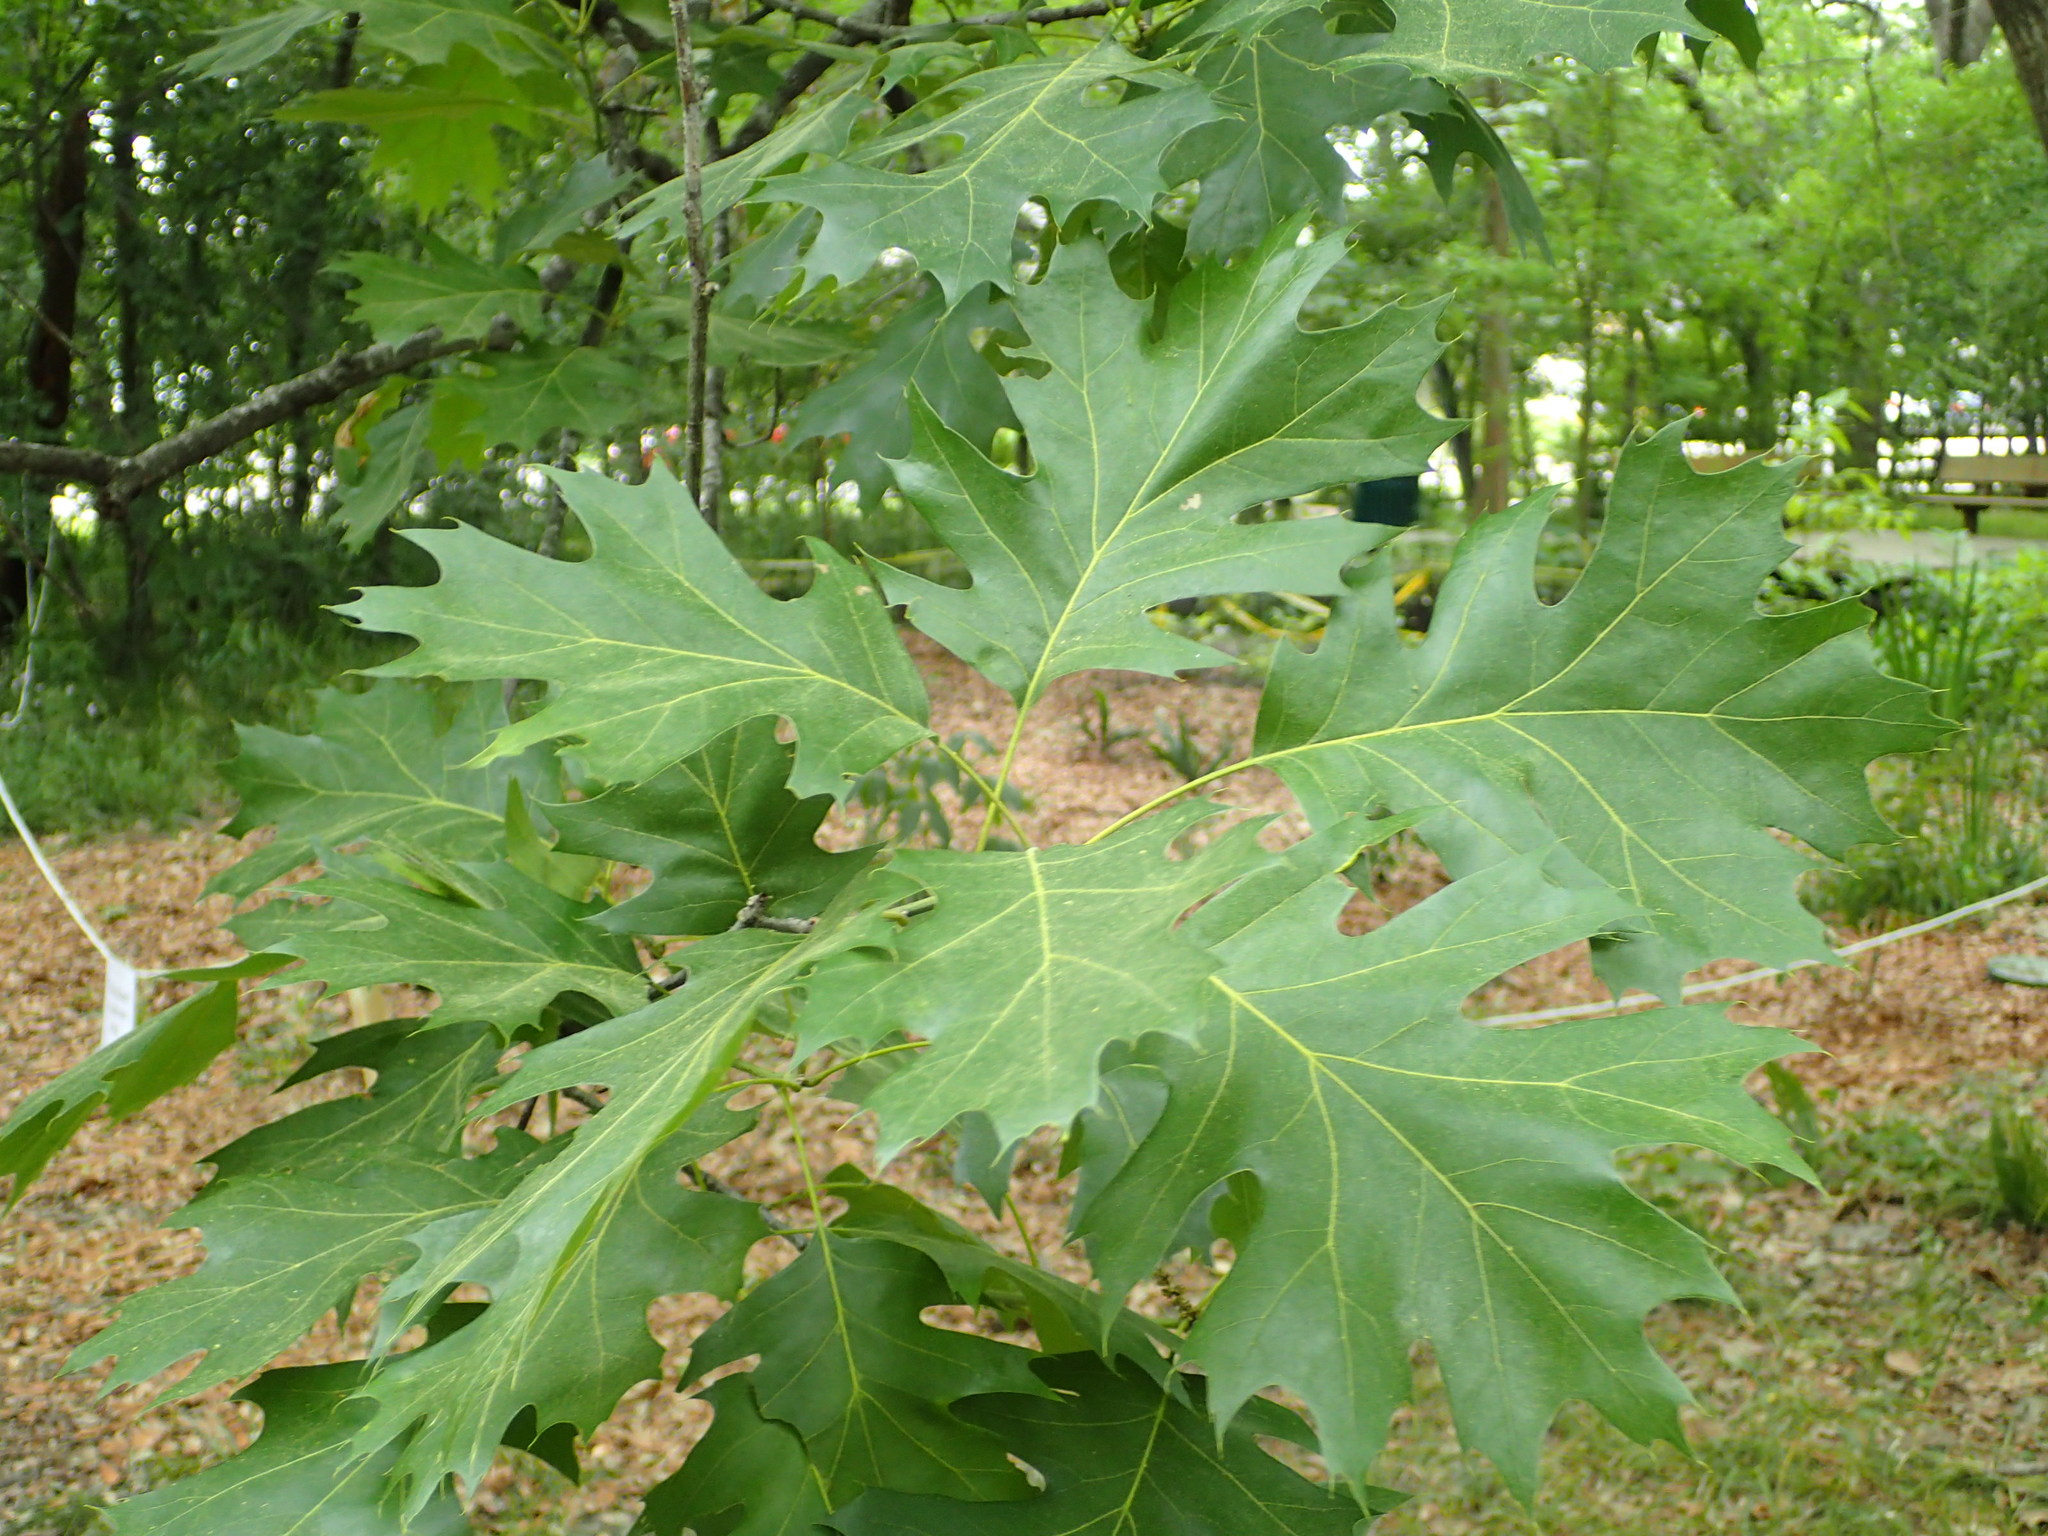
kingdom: Plantae
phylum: Tracheophyta
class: Magnoliopsida
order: Fagales
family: Fagaceae
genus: Quercus
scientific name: Quercus shumardii
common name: Shumard oak
